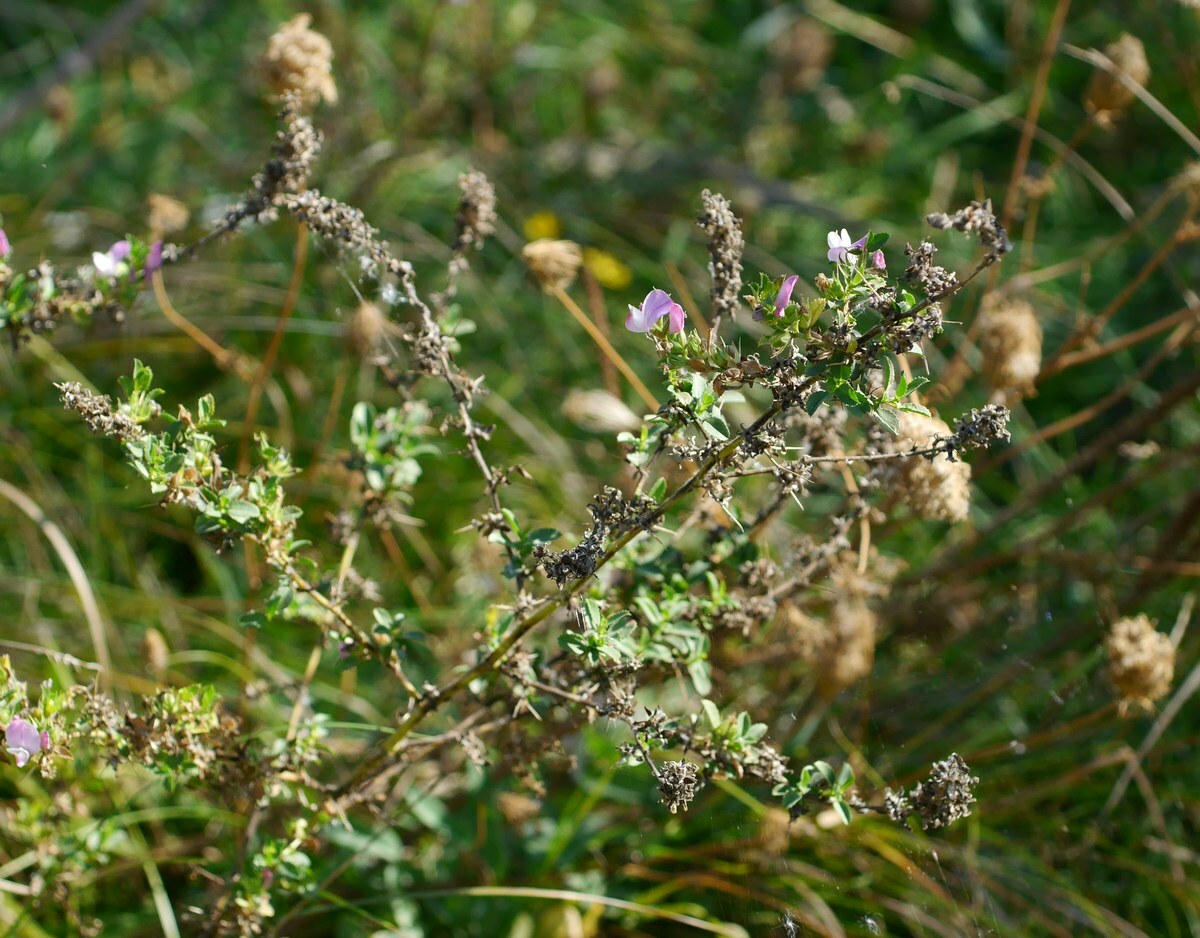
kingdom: Plantae
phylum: Tracheophyta
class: Magnoliopsida
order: Fabales
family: Fabaceae
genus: Ononis
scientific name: Ononis arvensis
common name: Field restharrow
